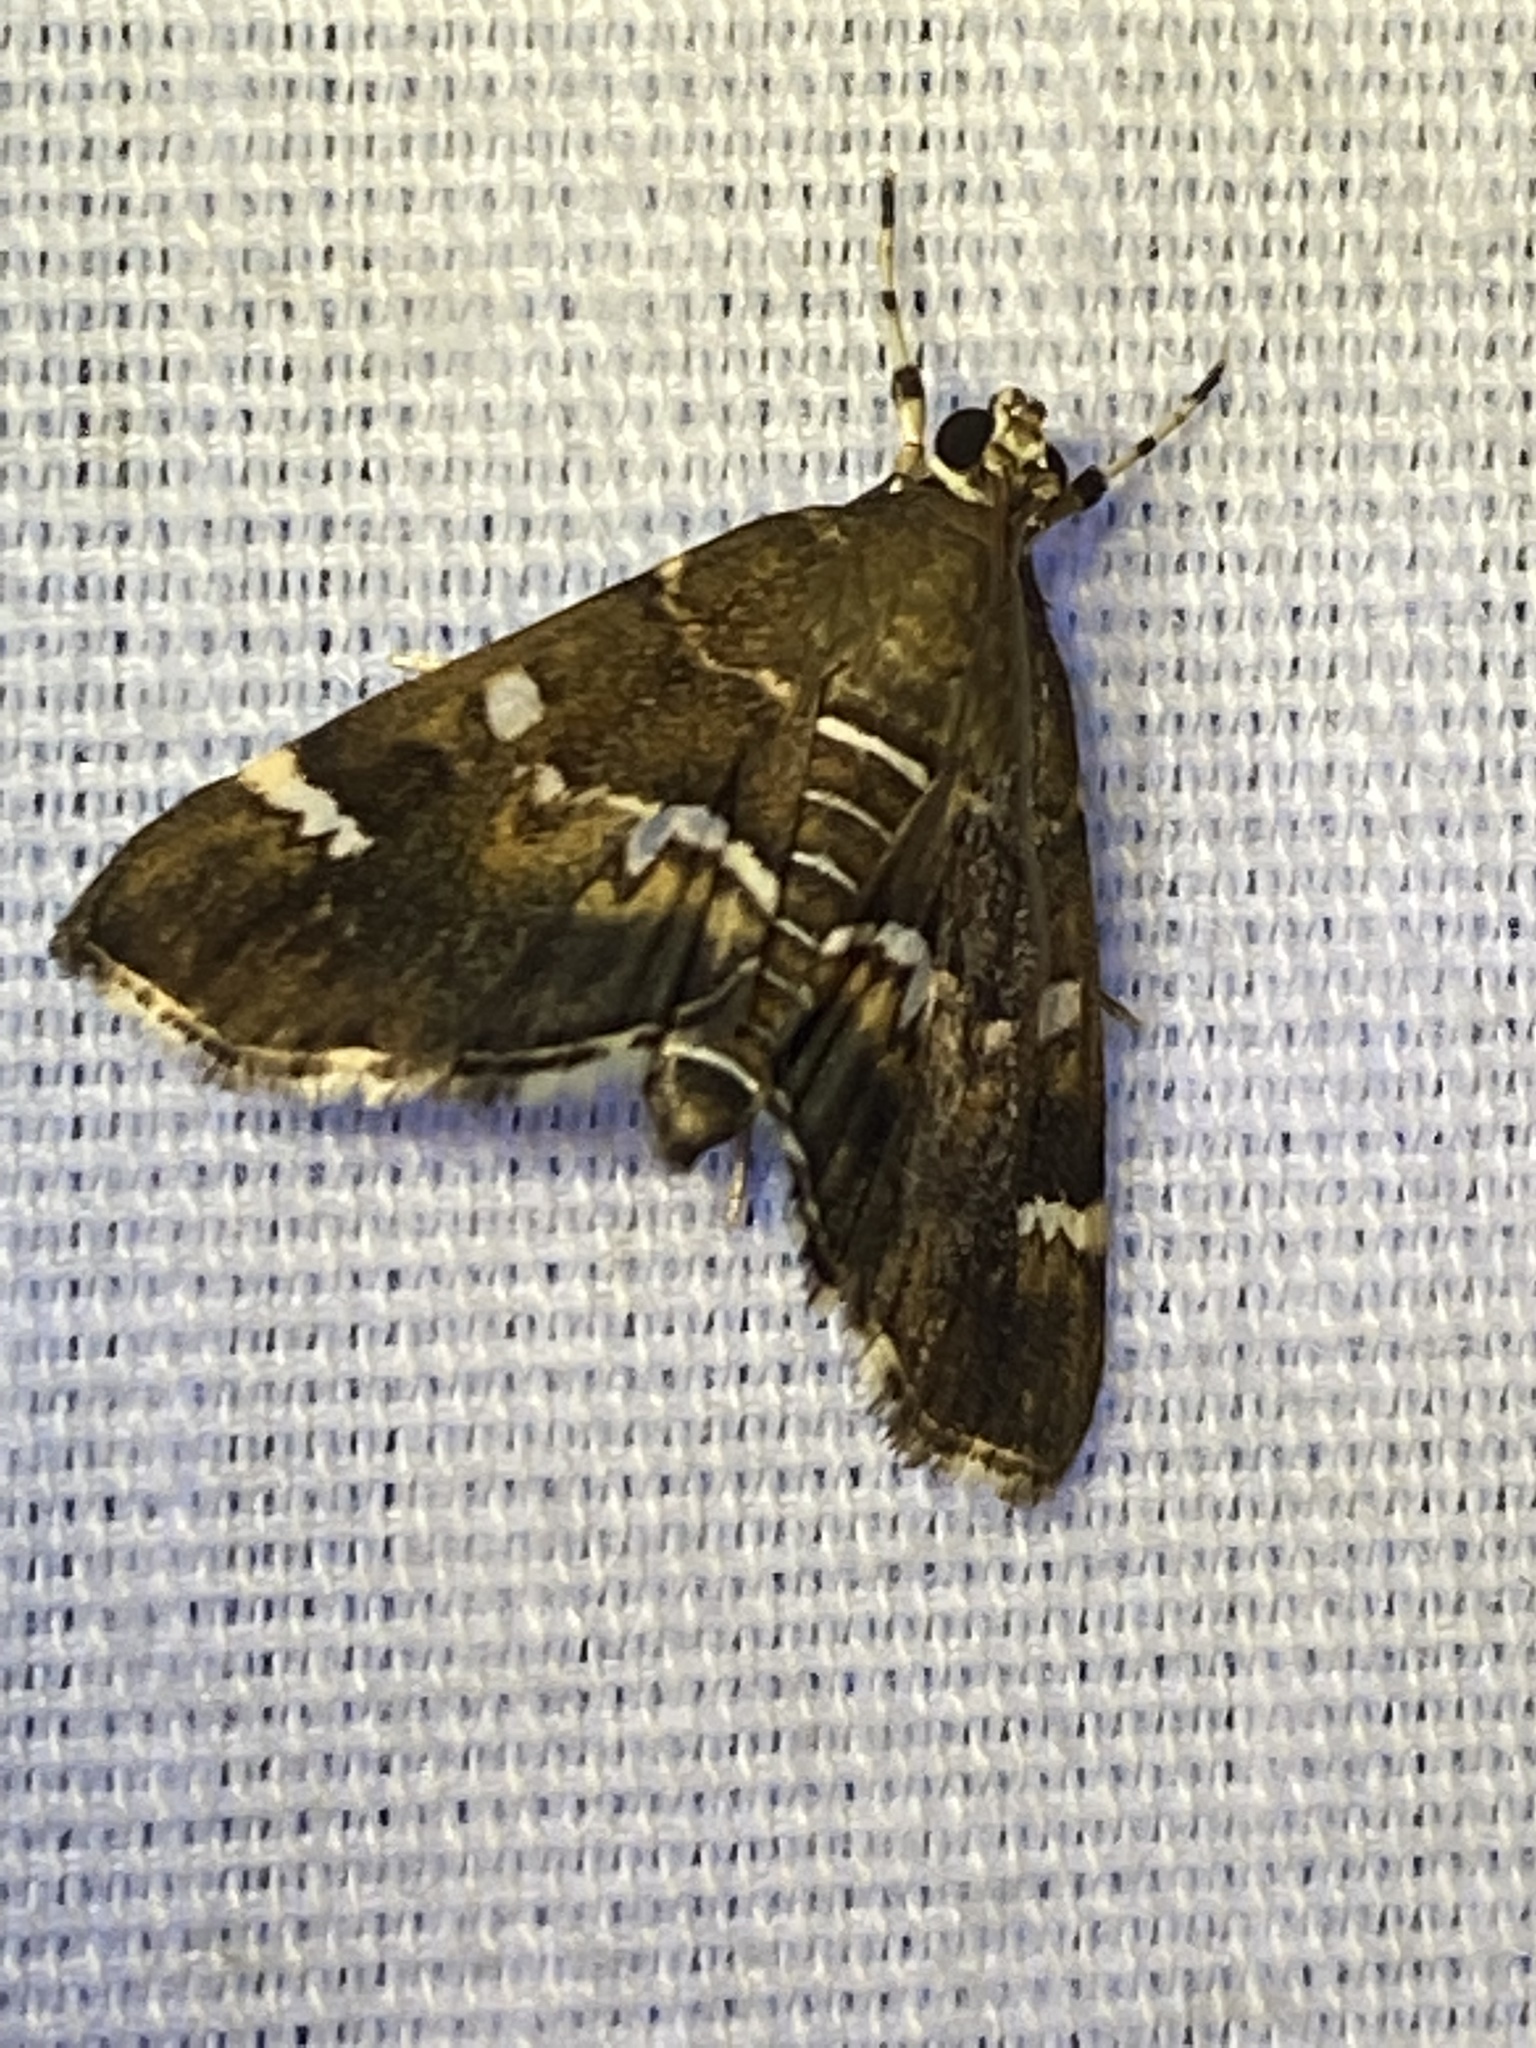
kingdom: Animalia
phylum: Arthropoda
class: Insecta
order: Lepidoptera
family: Crambidae
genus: Hymenia
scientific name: Hymenia perspectalis
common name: Spotted beet webworm
